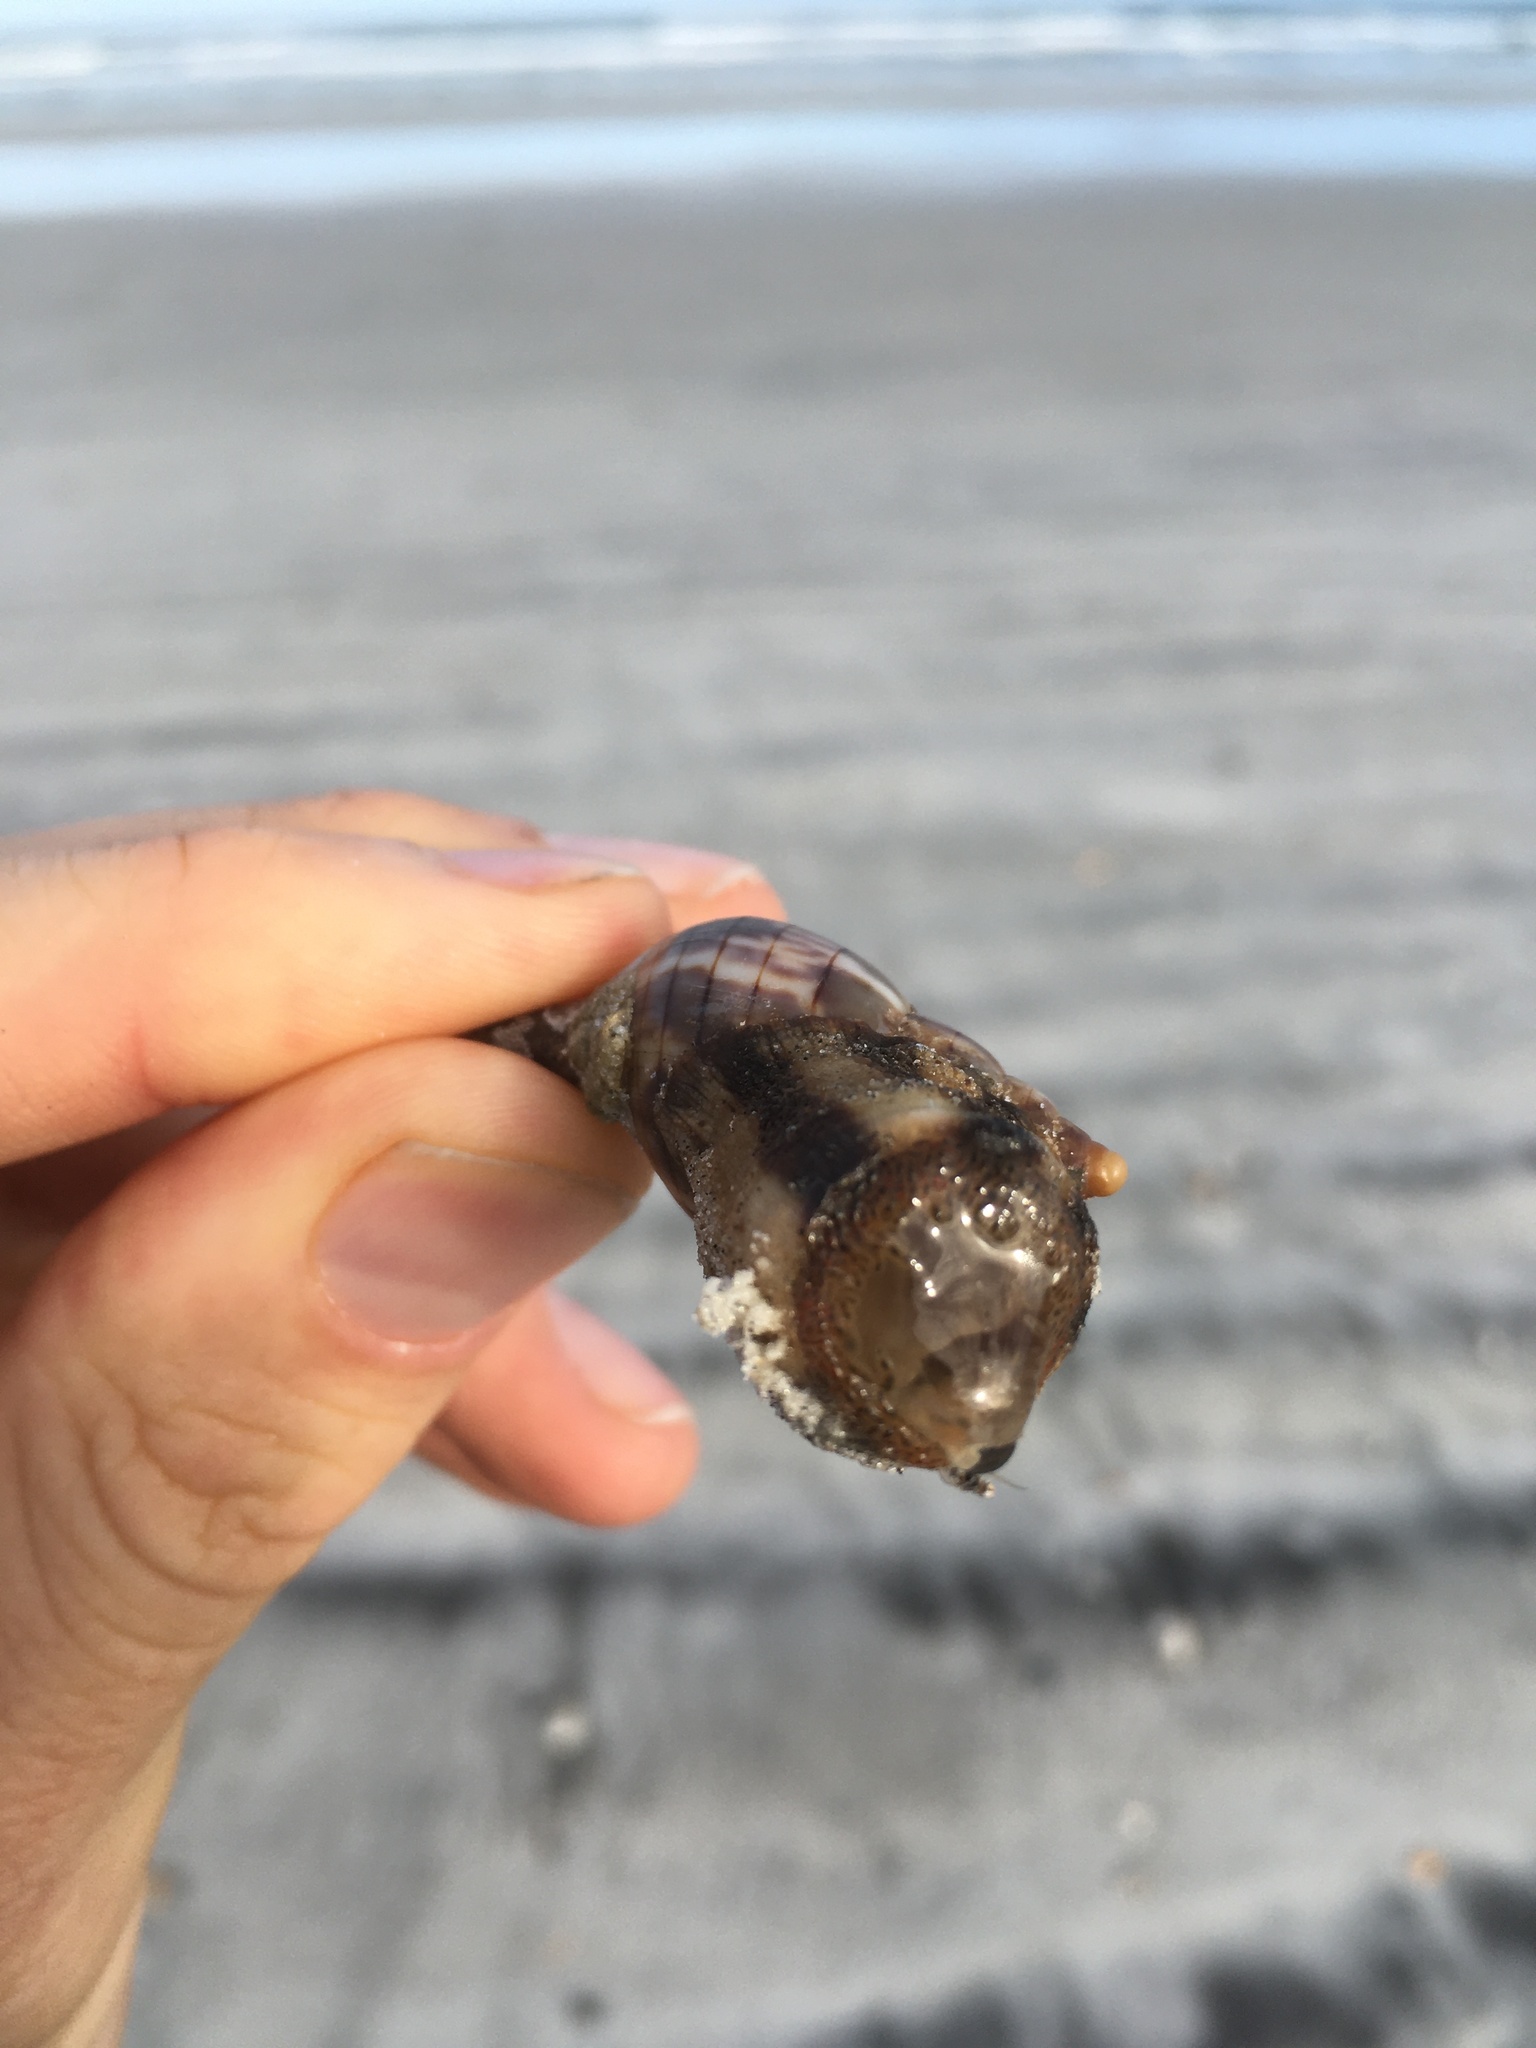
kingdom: Animalia
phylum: Cnidaria
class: Anthozoa
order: Actiniaria
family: Hormathiidae
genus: Calliactis
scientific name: Calliactis tricolor
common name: Hermit anemone
